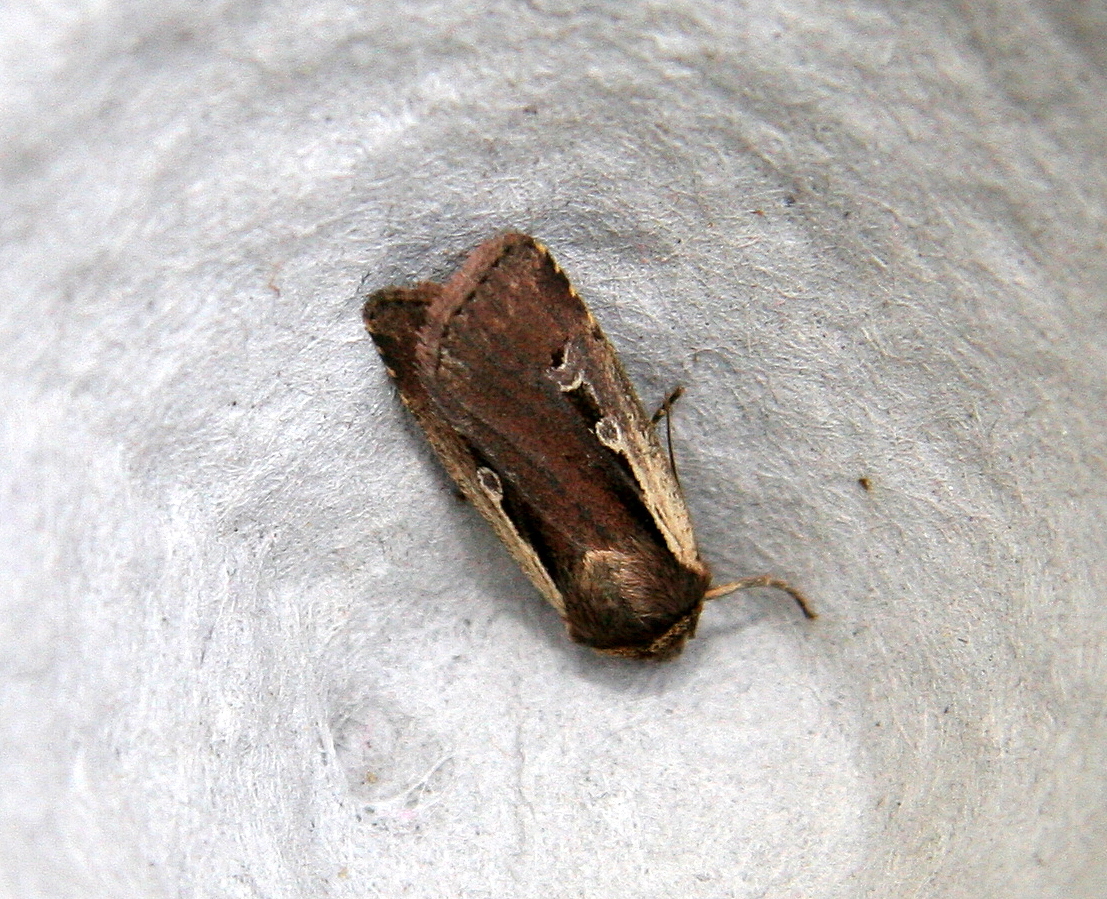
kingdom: Animalia
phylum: Arthropoda
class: Insecta
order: Lepidoptera
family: Noctuidae
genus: Ochropleura
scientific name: Ochropleura plecta
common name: Flame shoulder
